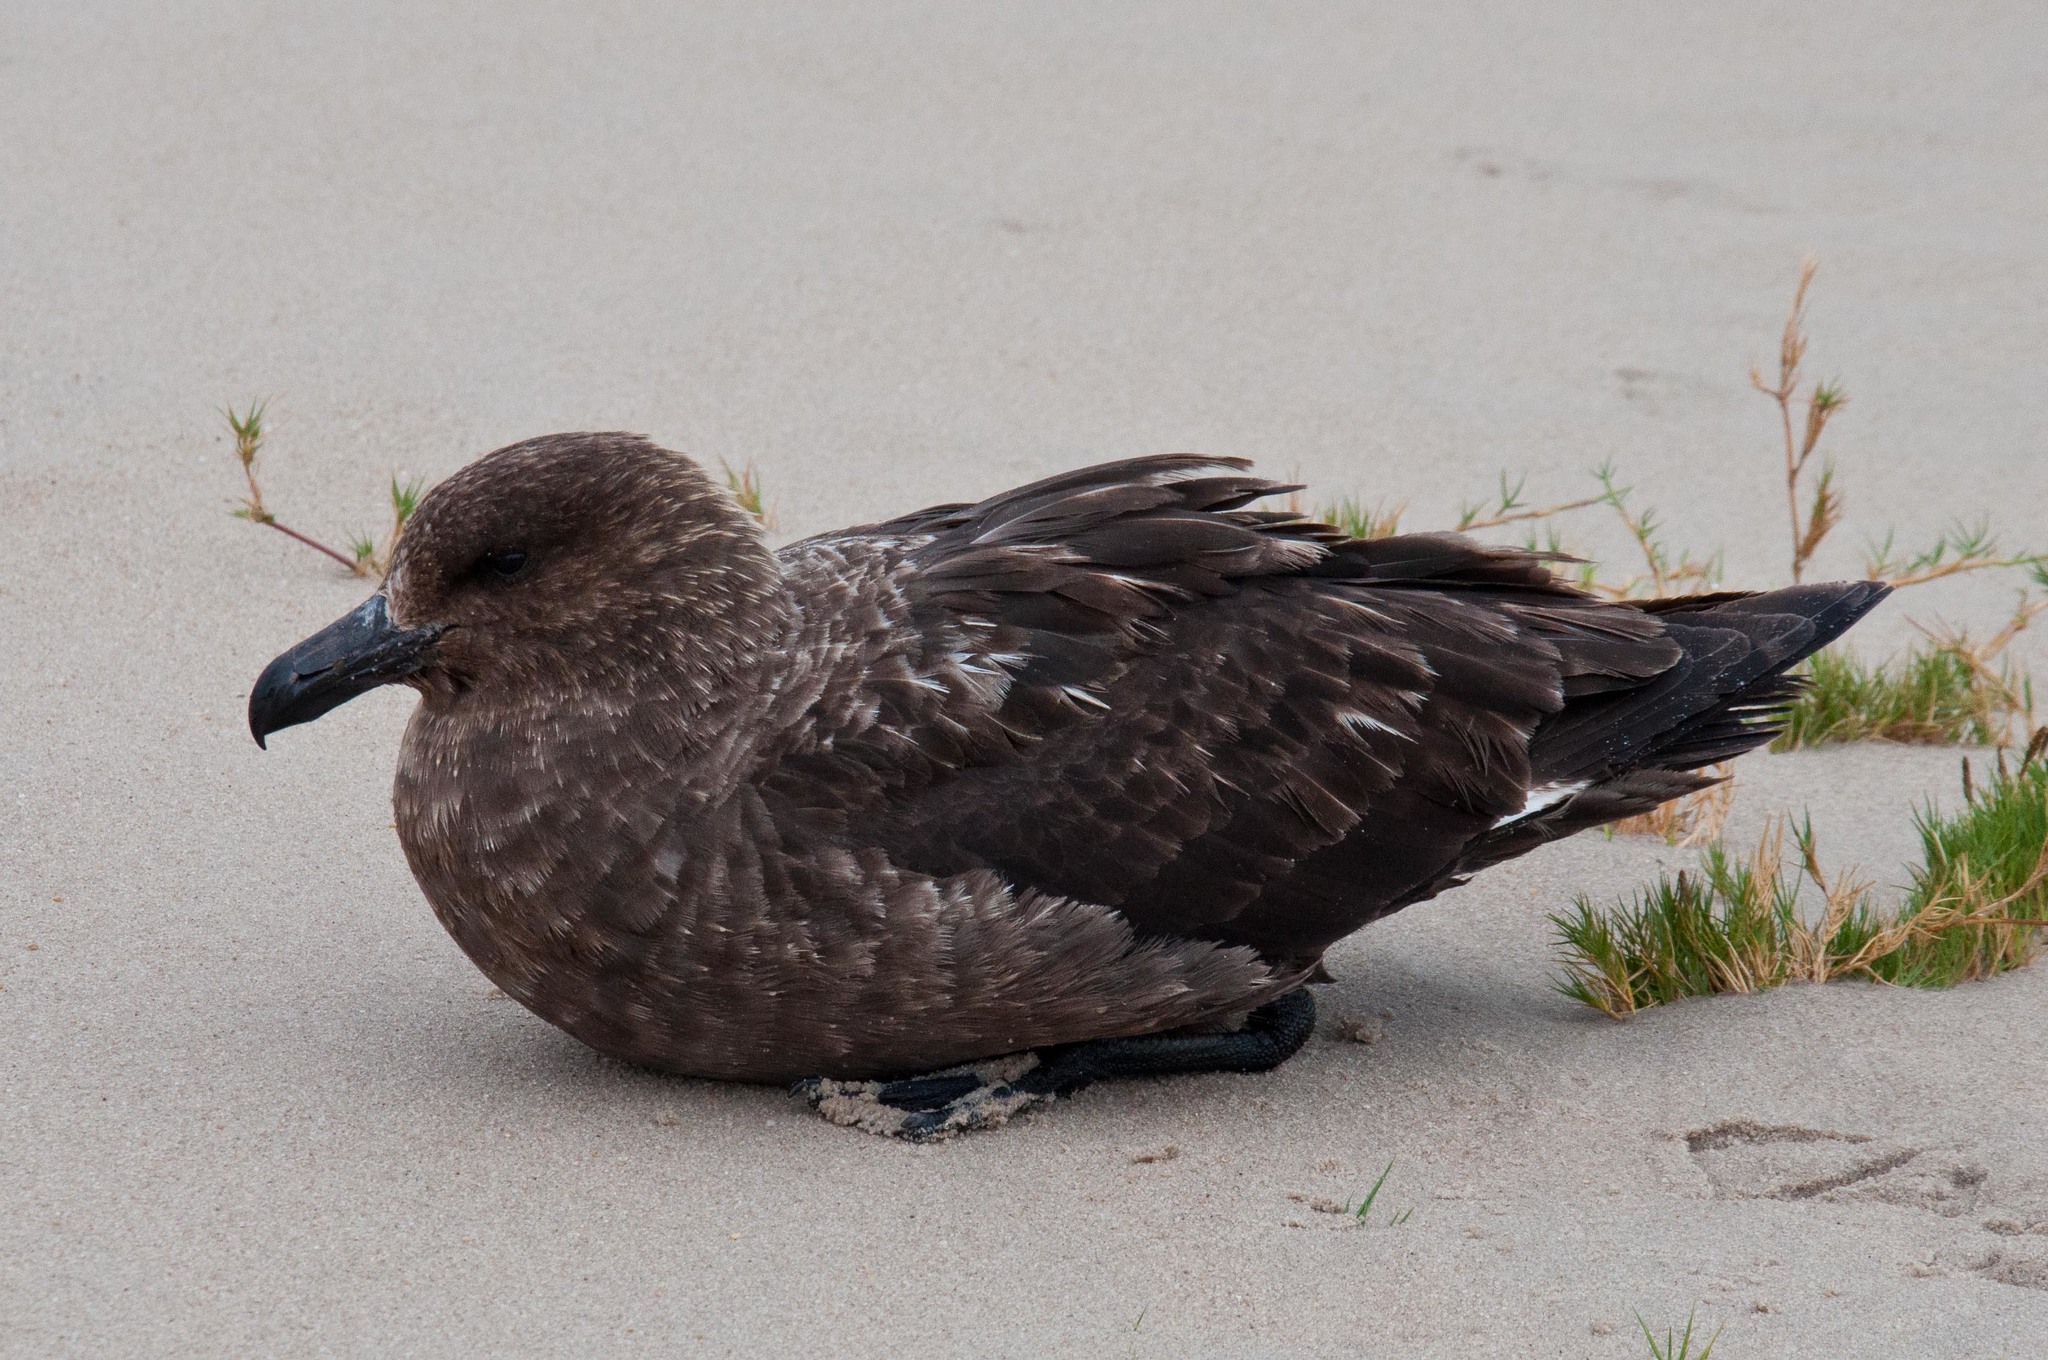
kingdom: Animalia
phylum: Chordata
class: Aves
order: Charadriiformes
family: Stercorariidae
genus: Stercorarius
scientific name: Stercorarius antarcticus
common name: Brown skua
